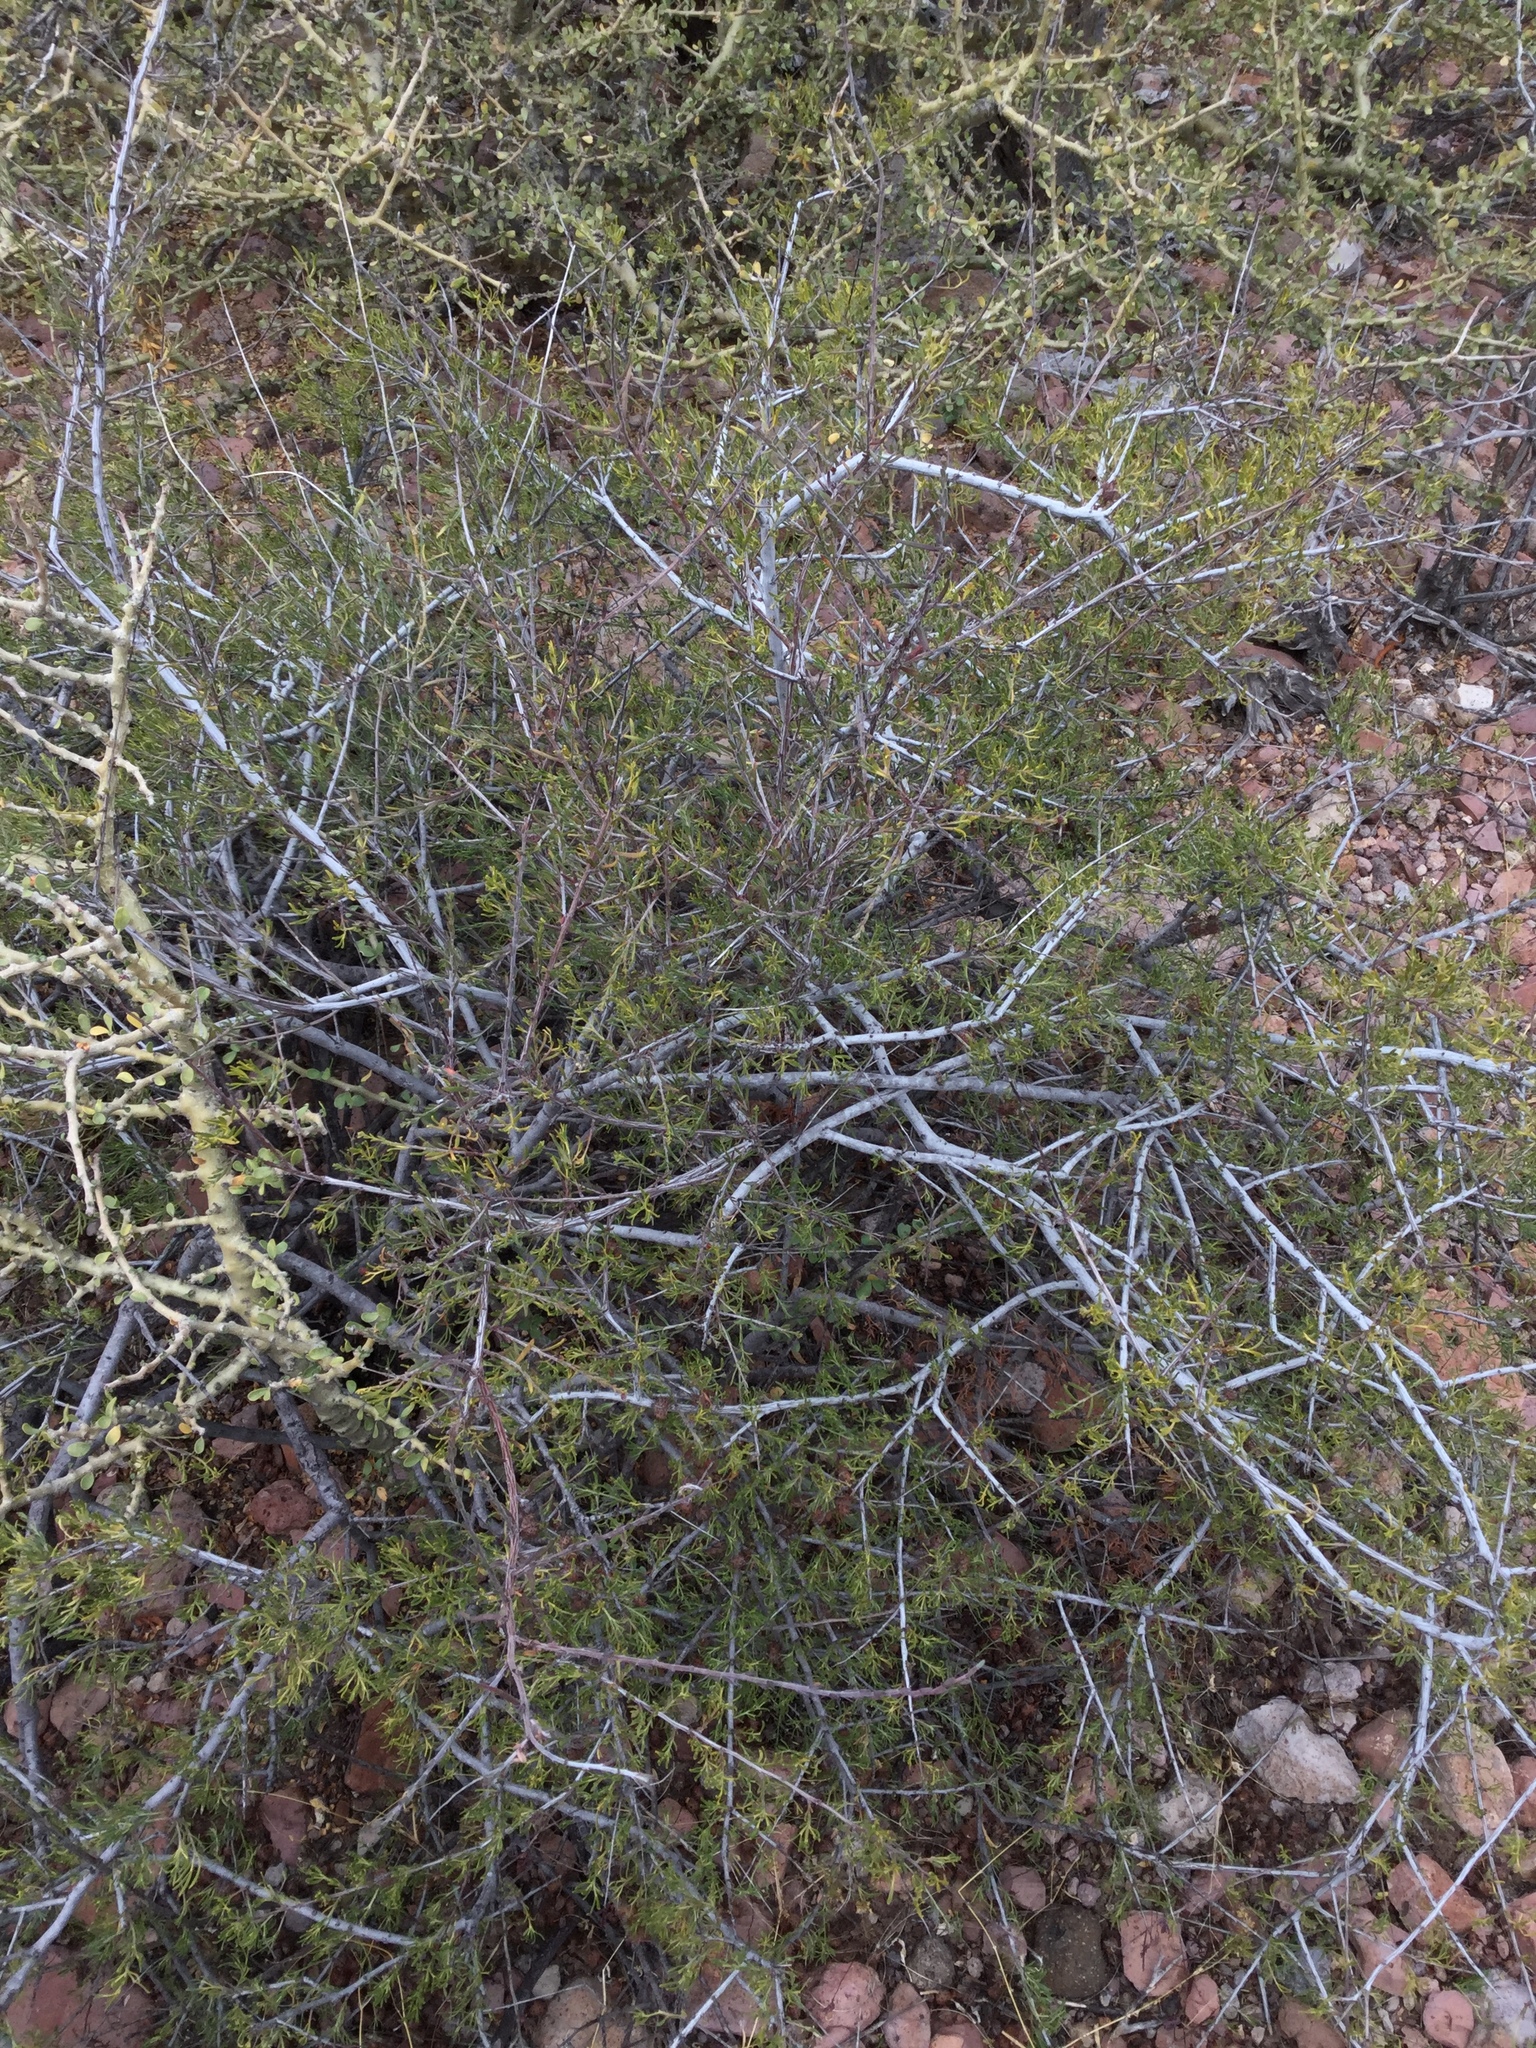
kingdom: Plantae
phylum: Tracheophyta
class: Magnoliopsida
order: Zygophyllales
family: Krameriaceae
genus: Krameria
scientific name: Krameria erecta
